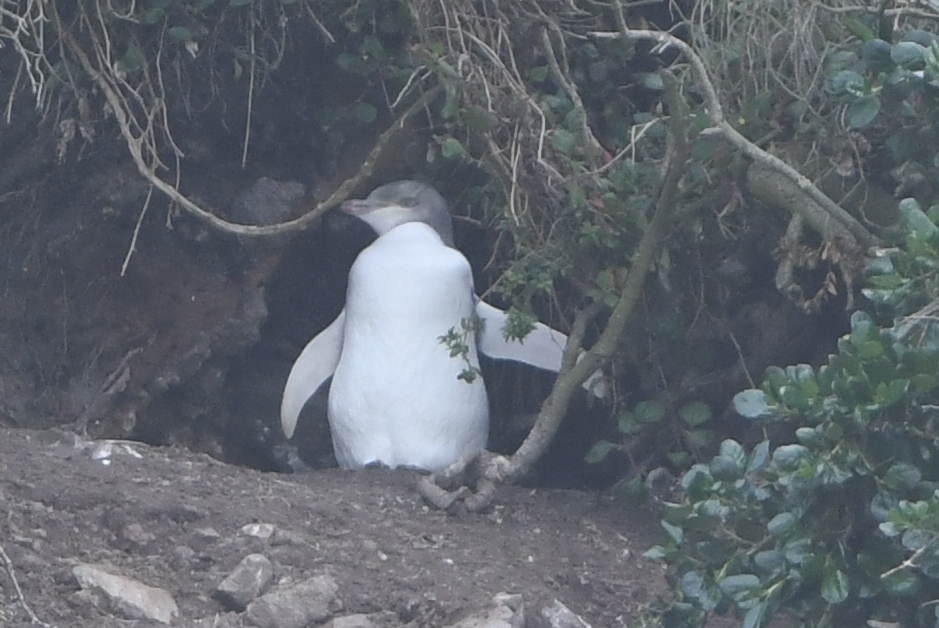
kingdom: Animalia
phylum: Chordata
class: Aves
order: Sphenisciformes
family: Spheniscidae
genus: Megadyptes
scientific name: Megadyptes antipodes
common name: Yellow-eyed penguin
